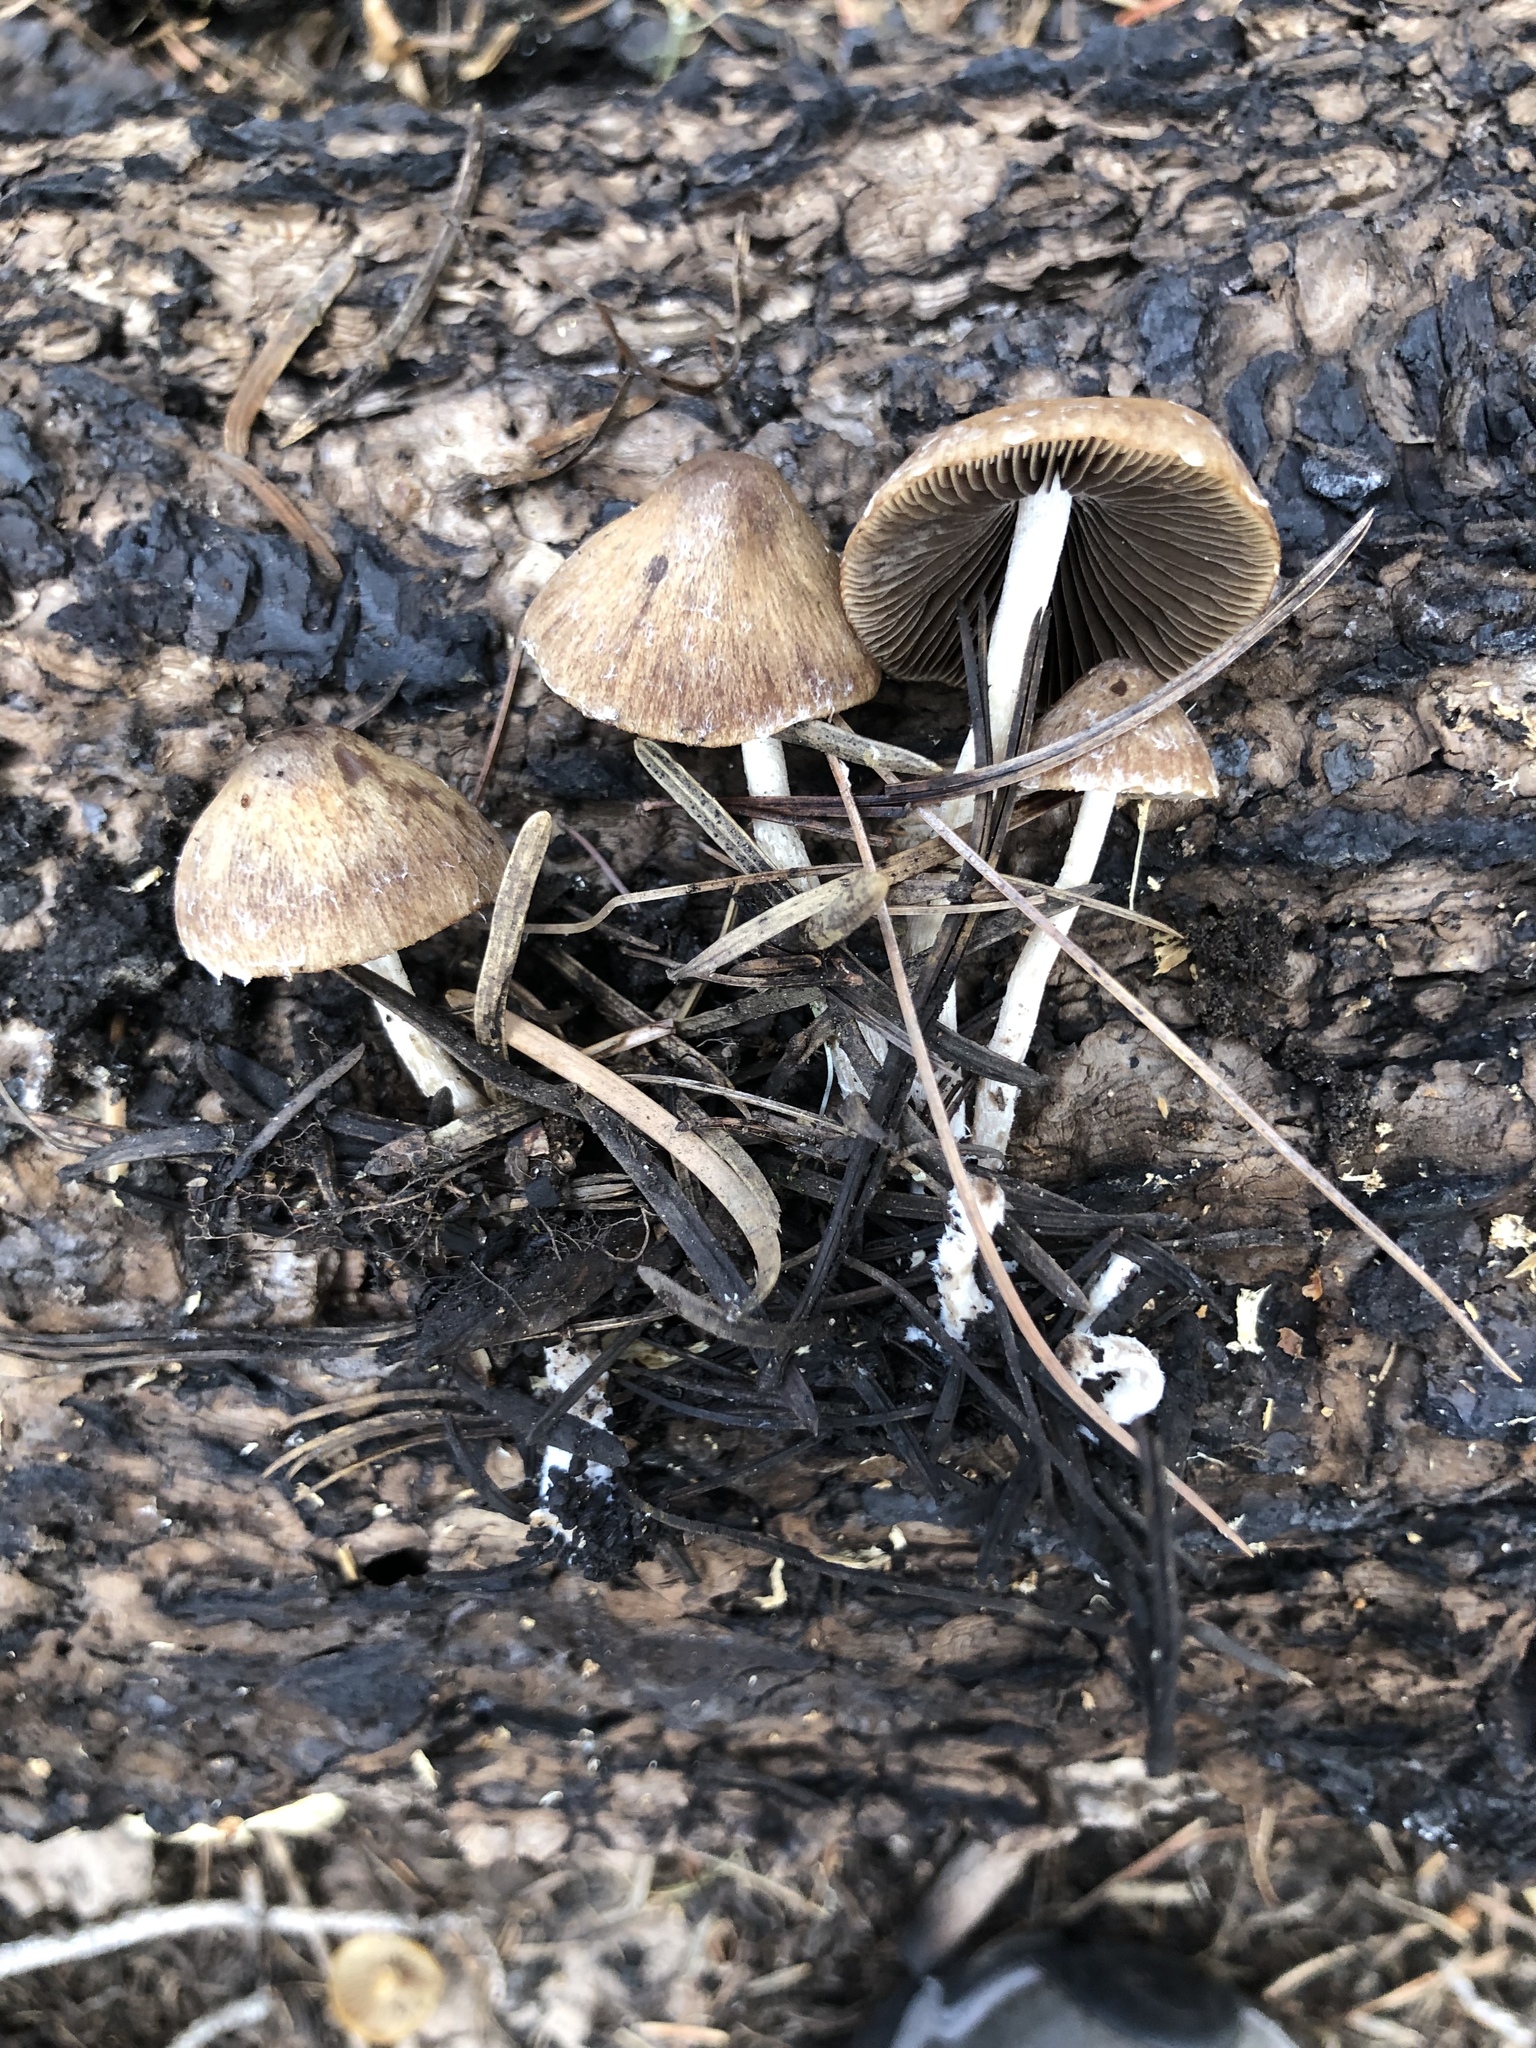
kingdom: Fungi
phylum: Basidiomycota
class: Agaricomycetes
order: Agaricales
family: Psathyrellaceae
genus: Psathyrella
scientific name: Psathyrella pennata
